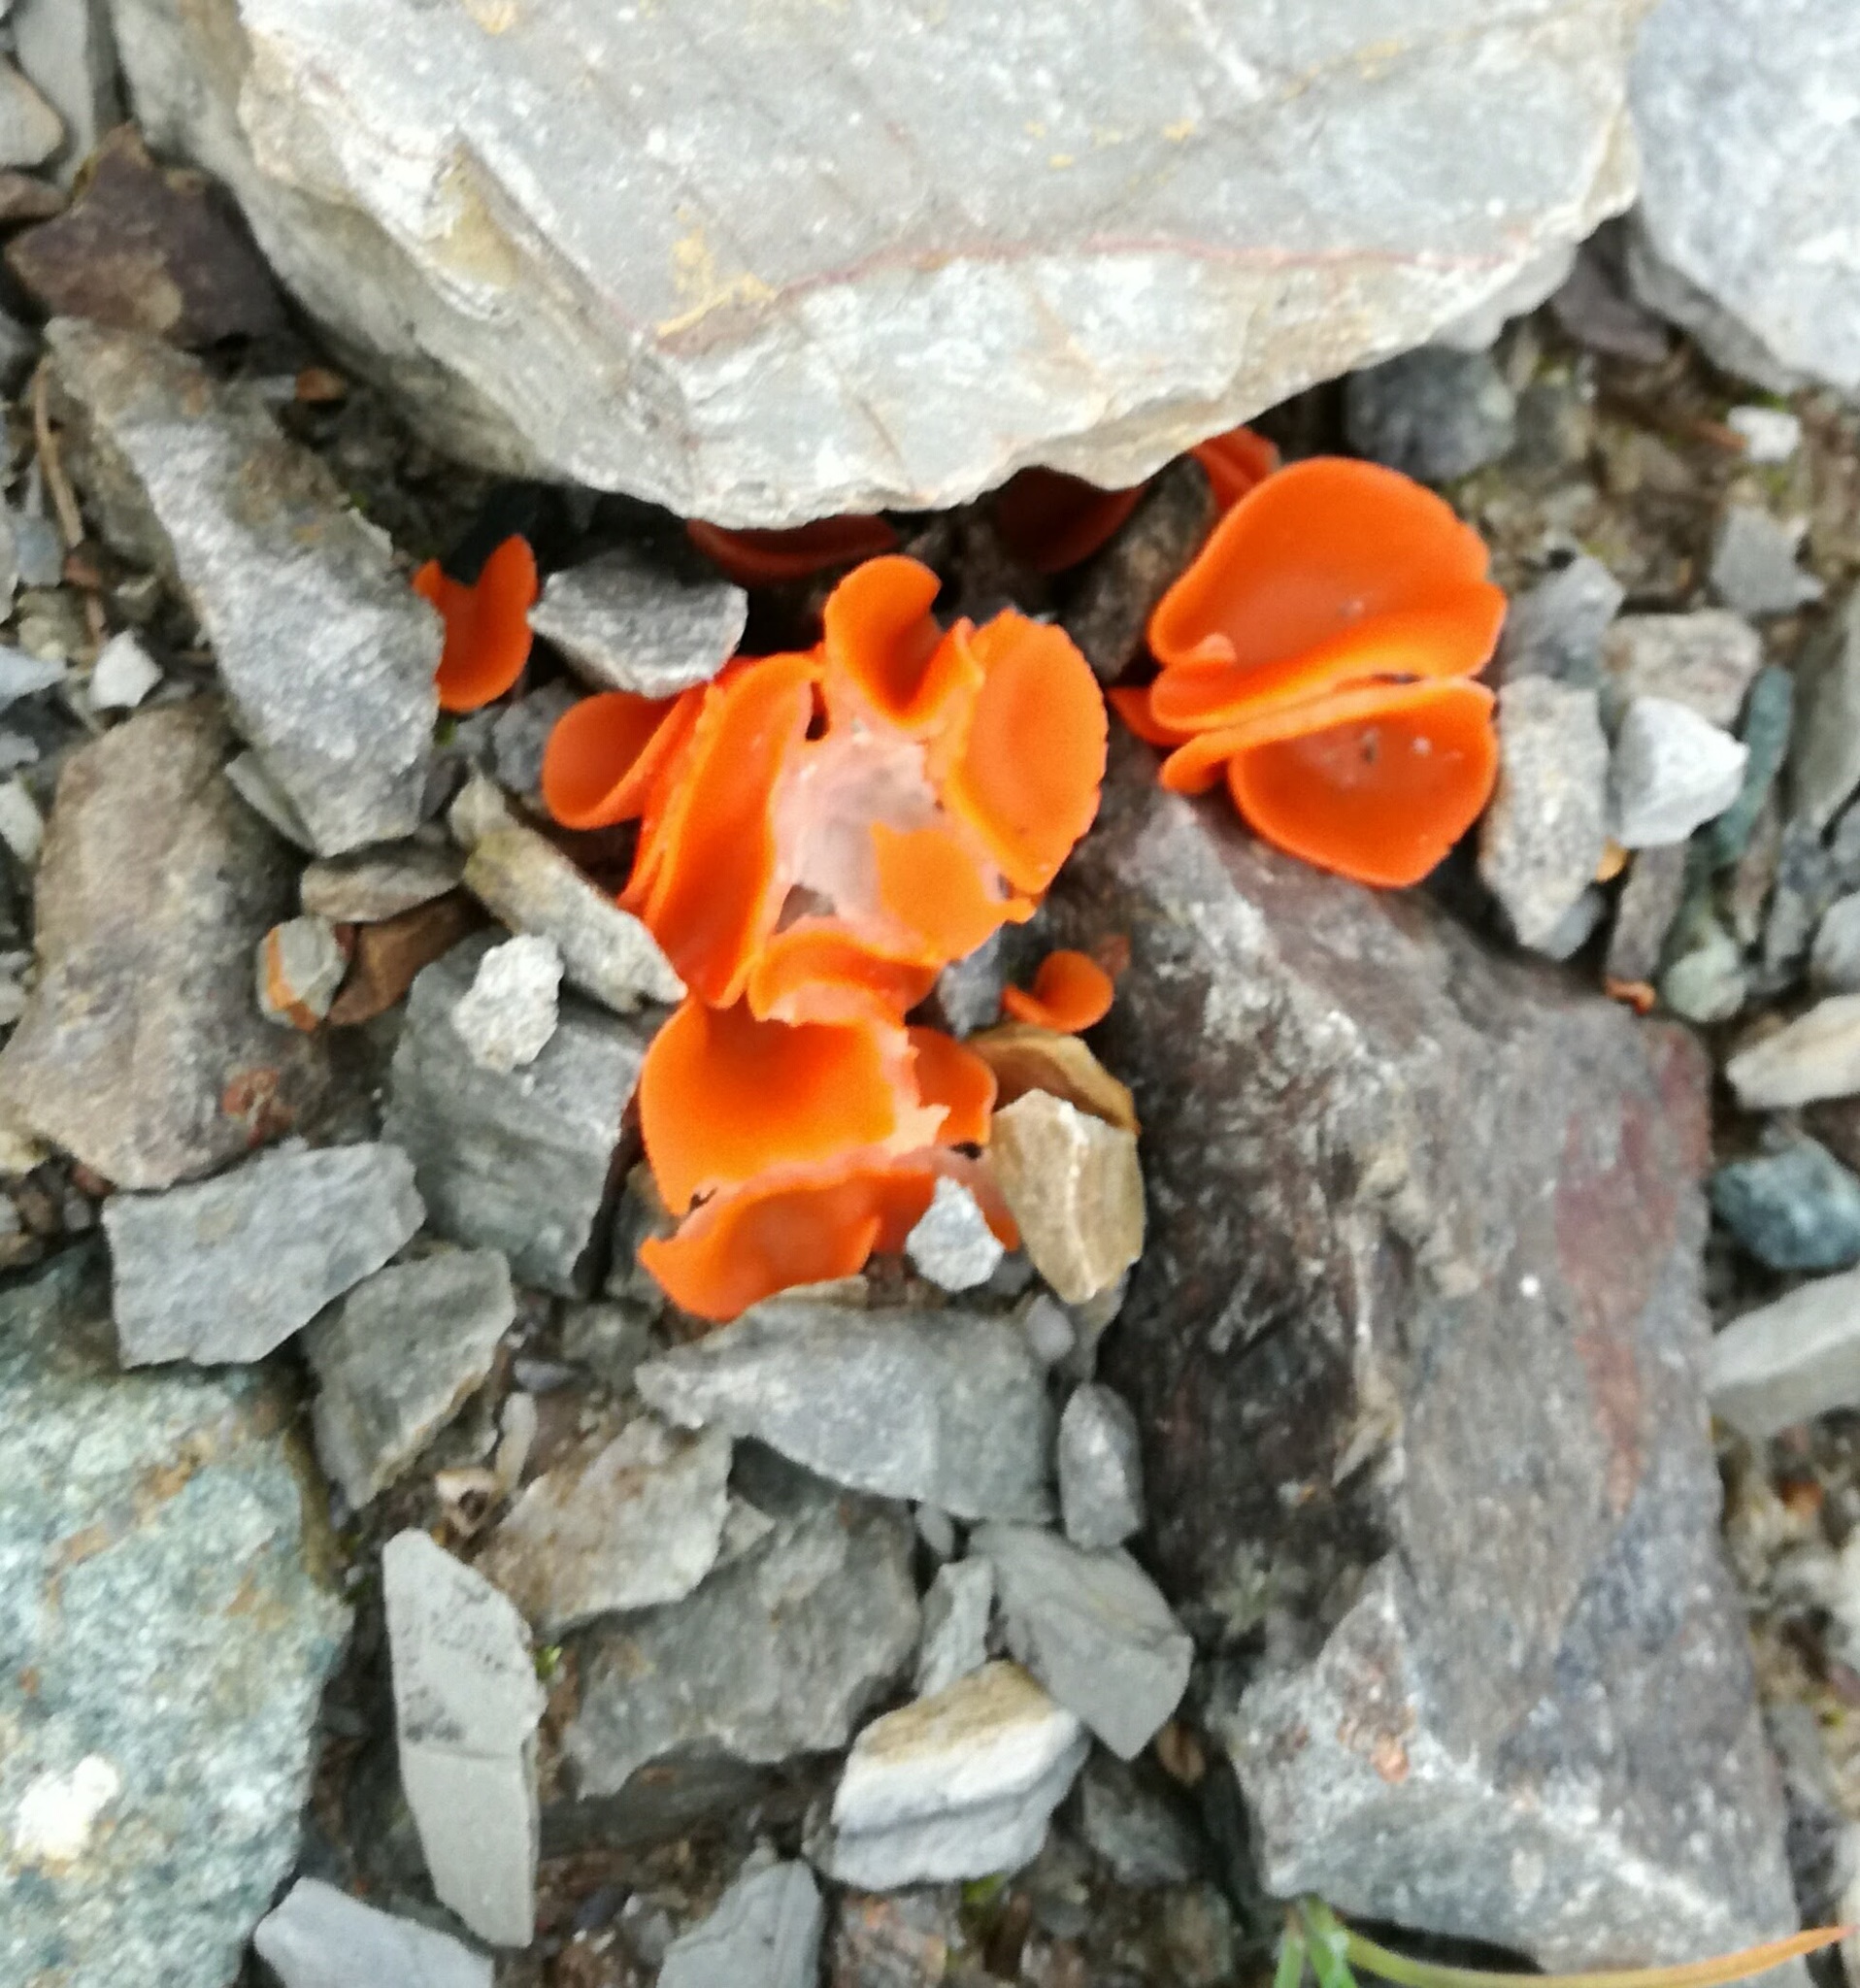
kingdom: Fungi
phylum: Ascomycota
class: Pezizomycetes
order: Pezizales
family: Pyronemataceae
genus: Aleuria
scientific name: Aleuria aurantia
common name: Orange peel fungus
